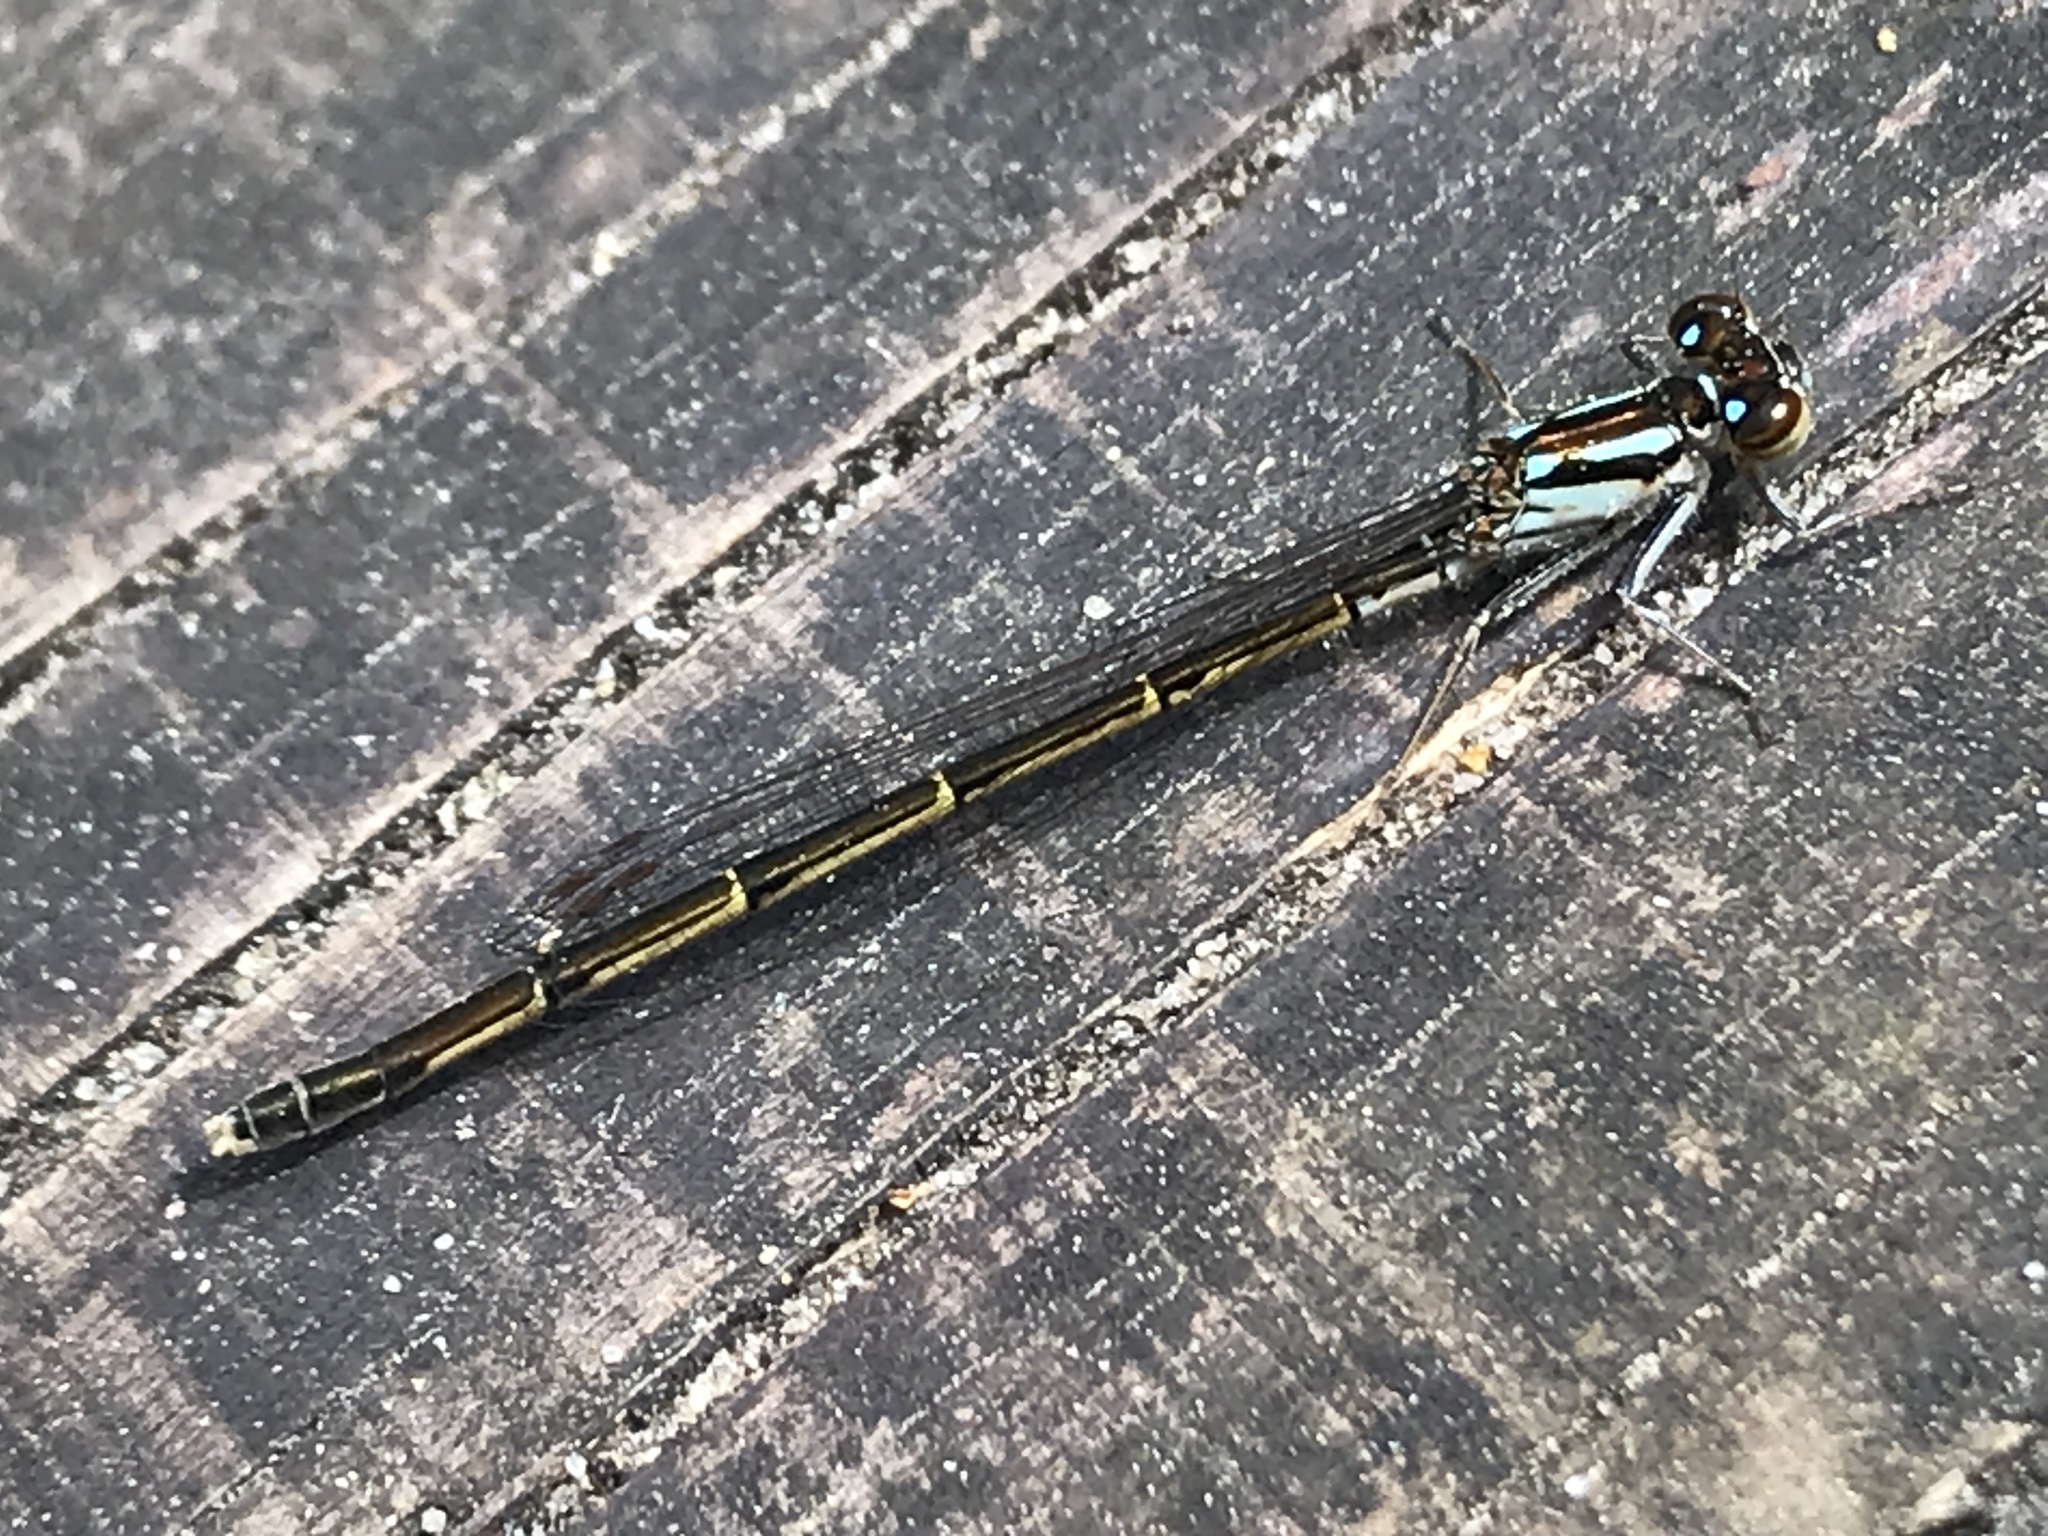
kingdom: Animalia
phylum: Arthropoda
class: Insecta
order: Odonata
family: Coenagrionidae
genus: Ischnura
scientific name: Ischnura posita
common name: Fragile forktail
